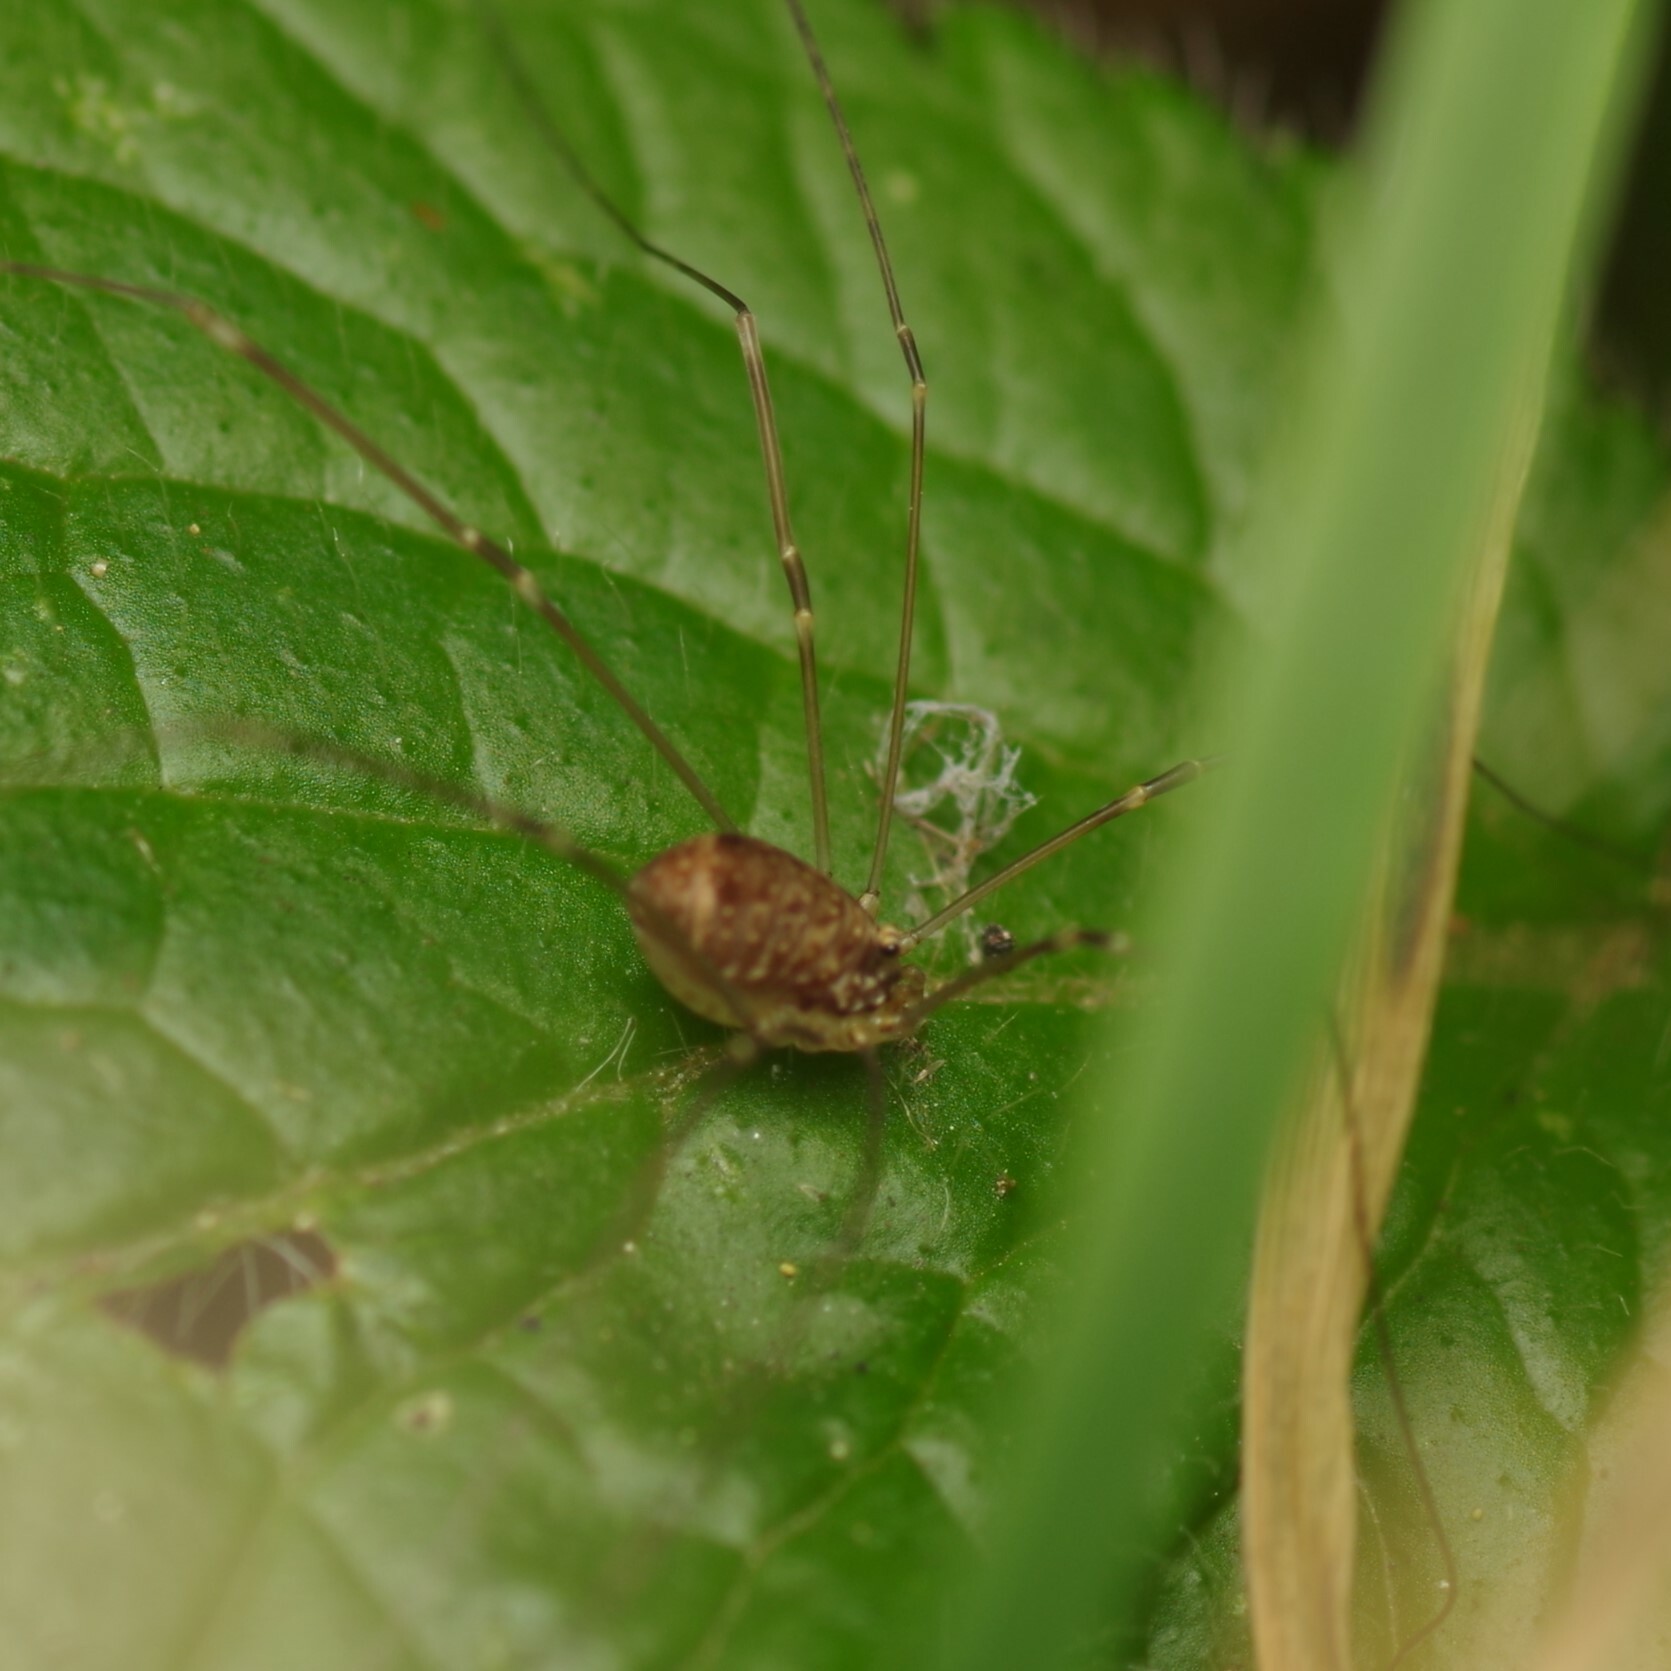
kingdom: Animalia
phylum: Arthropoda
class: Arachnida
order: Opiliones
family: Sclerosomatidae
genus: Leiobunum
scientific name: Leiobunum blackwalli
